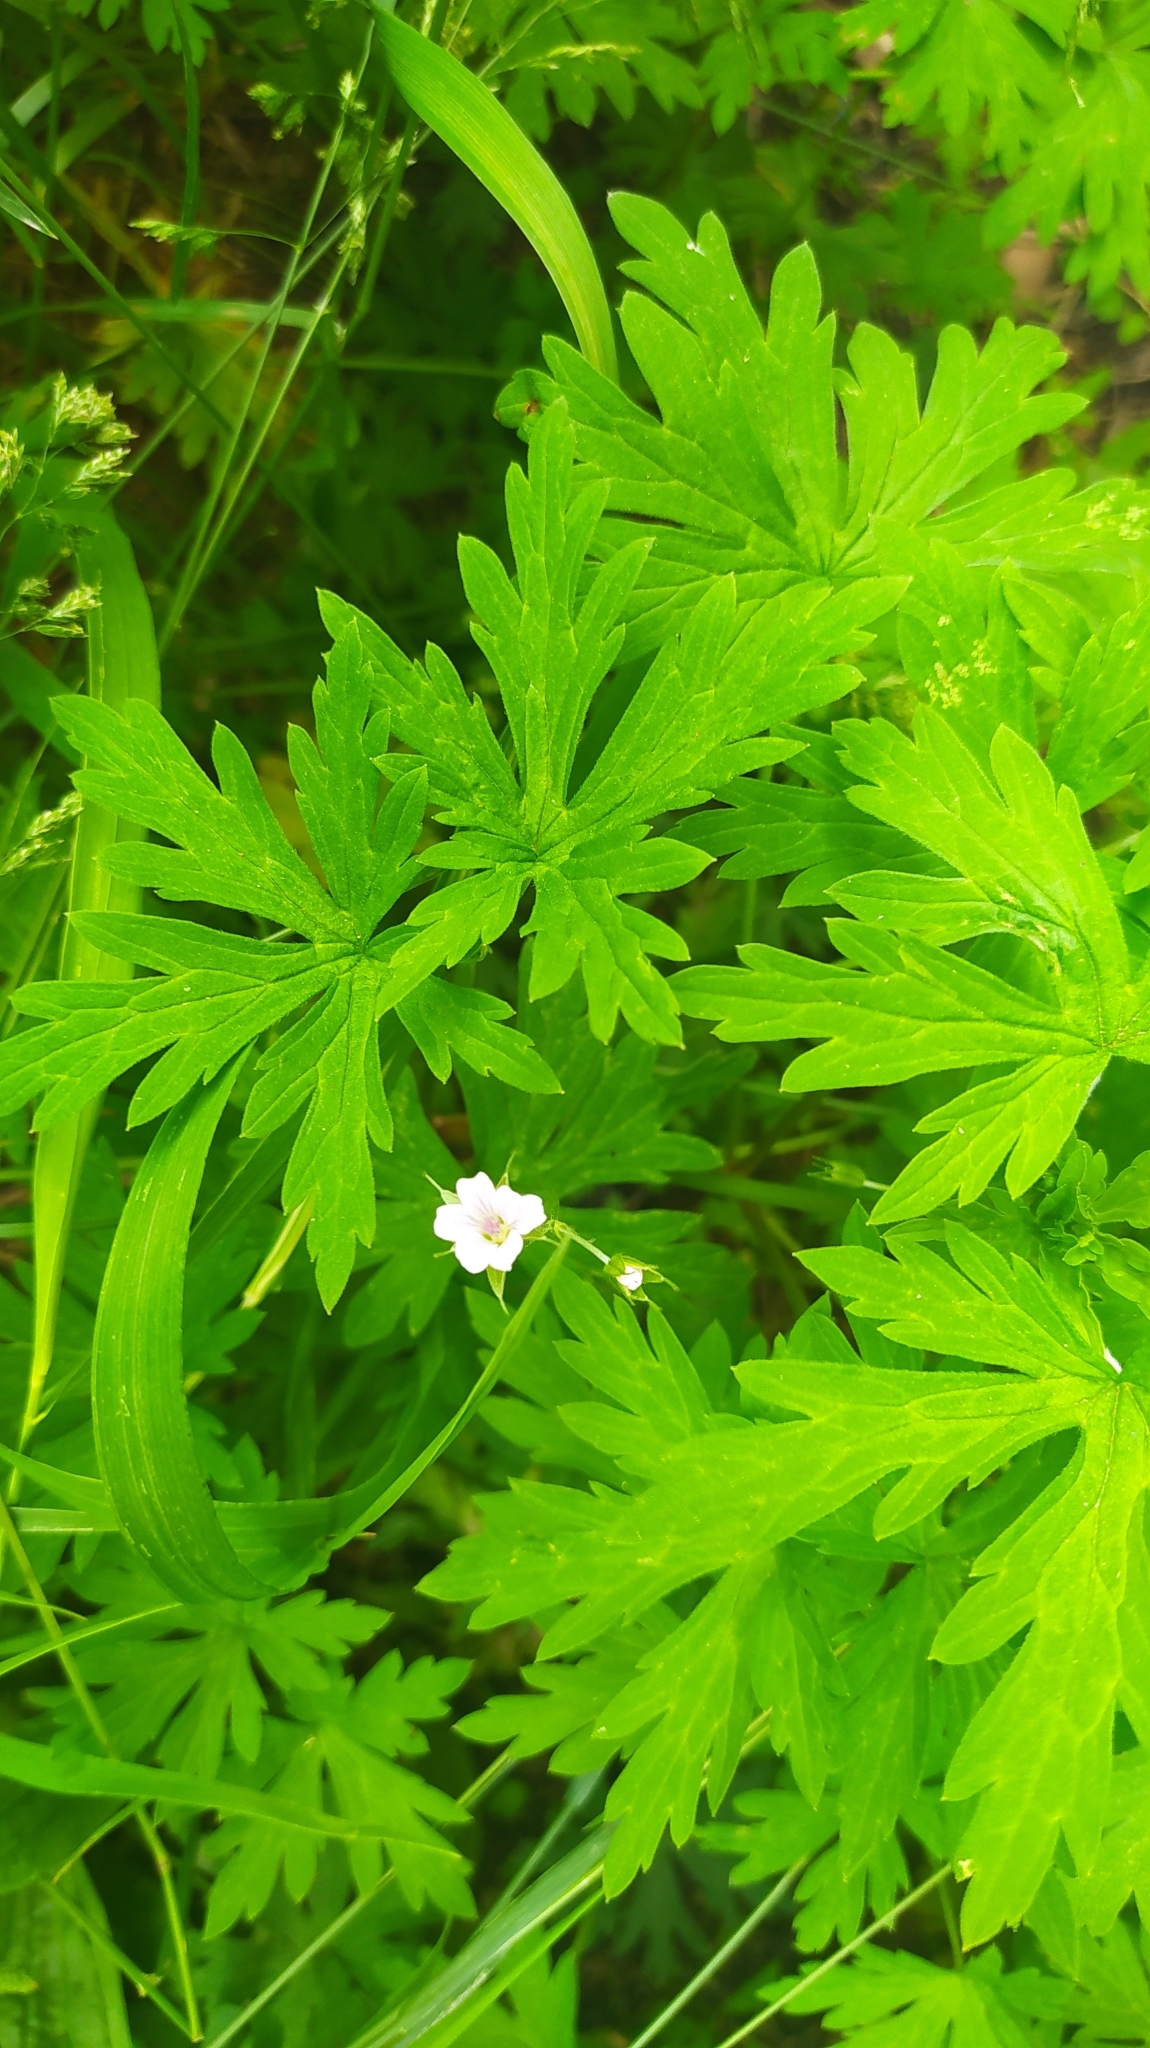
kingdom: Plantae
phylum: Tracheophyta
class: Magnoliopsida
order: Geraniales
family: Geraniaceae
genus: Geranium
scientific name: Geranium sibiricum
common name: Siberian crane's-bill
